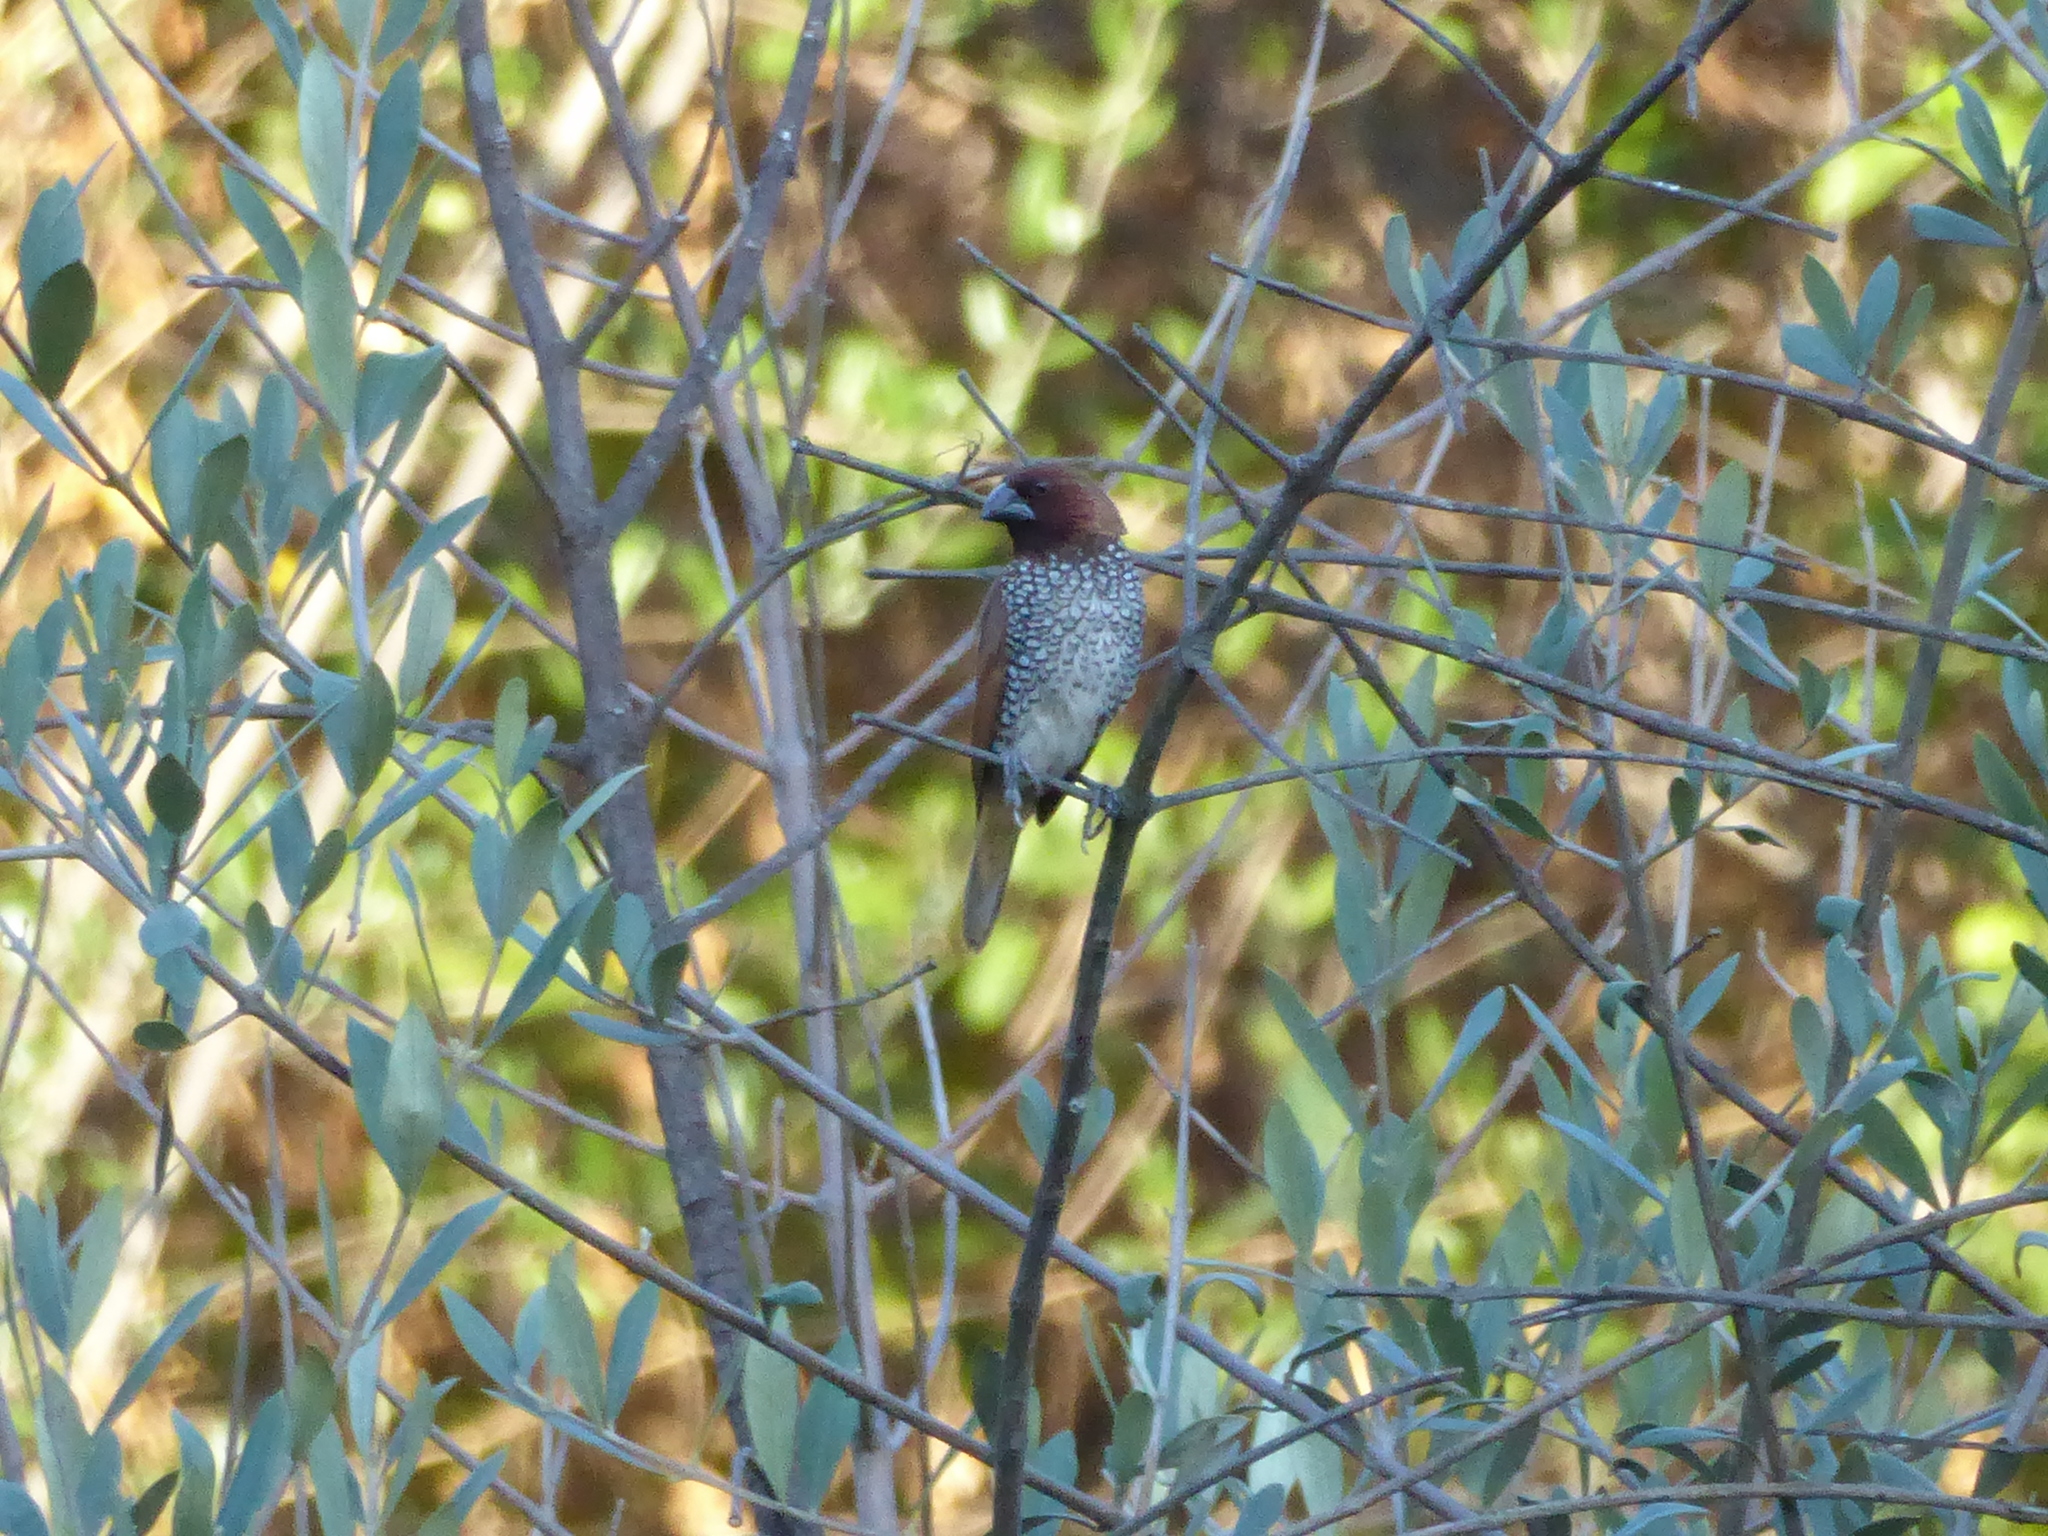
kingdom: Animalia
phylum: Chordata
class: Aves
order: Passeriformes
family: Estrildidae
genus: Lonchura
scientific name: Lonchura punctulata
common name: Scaly-breasted munia
